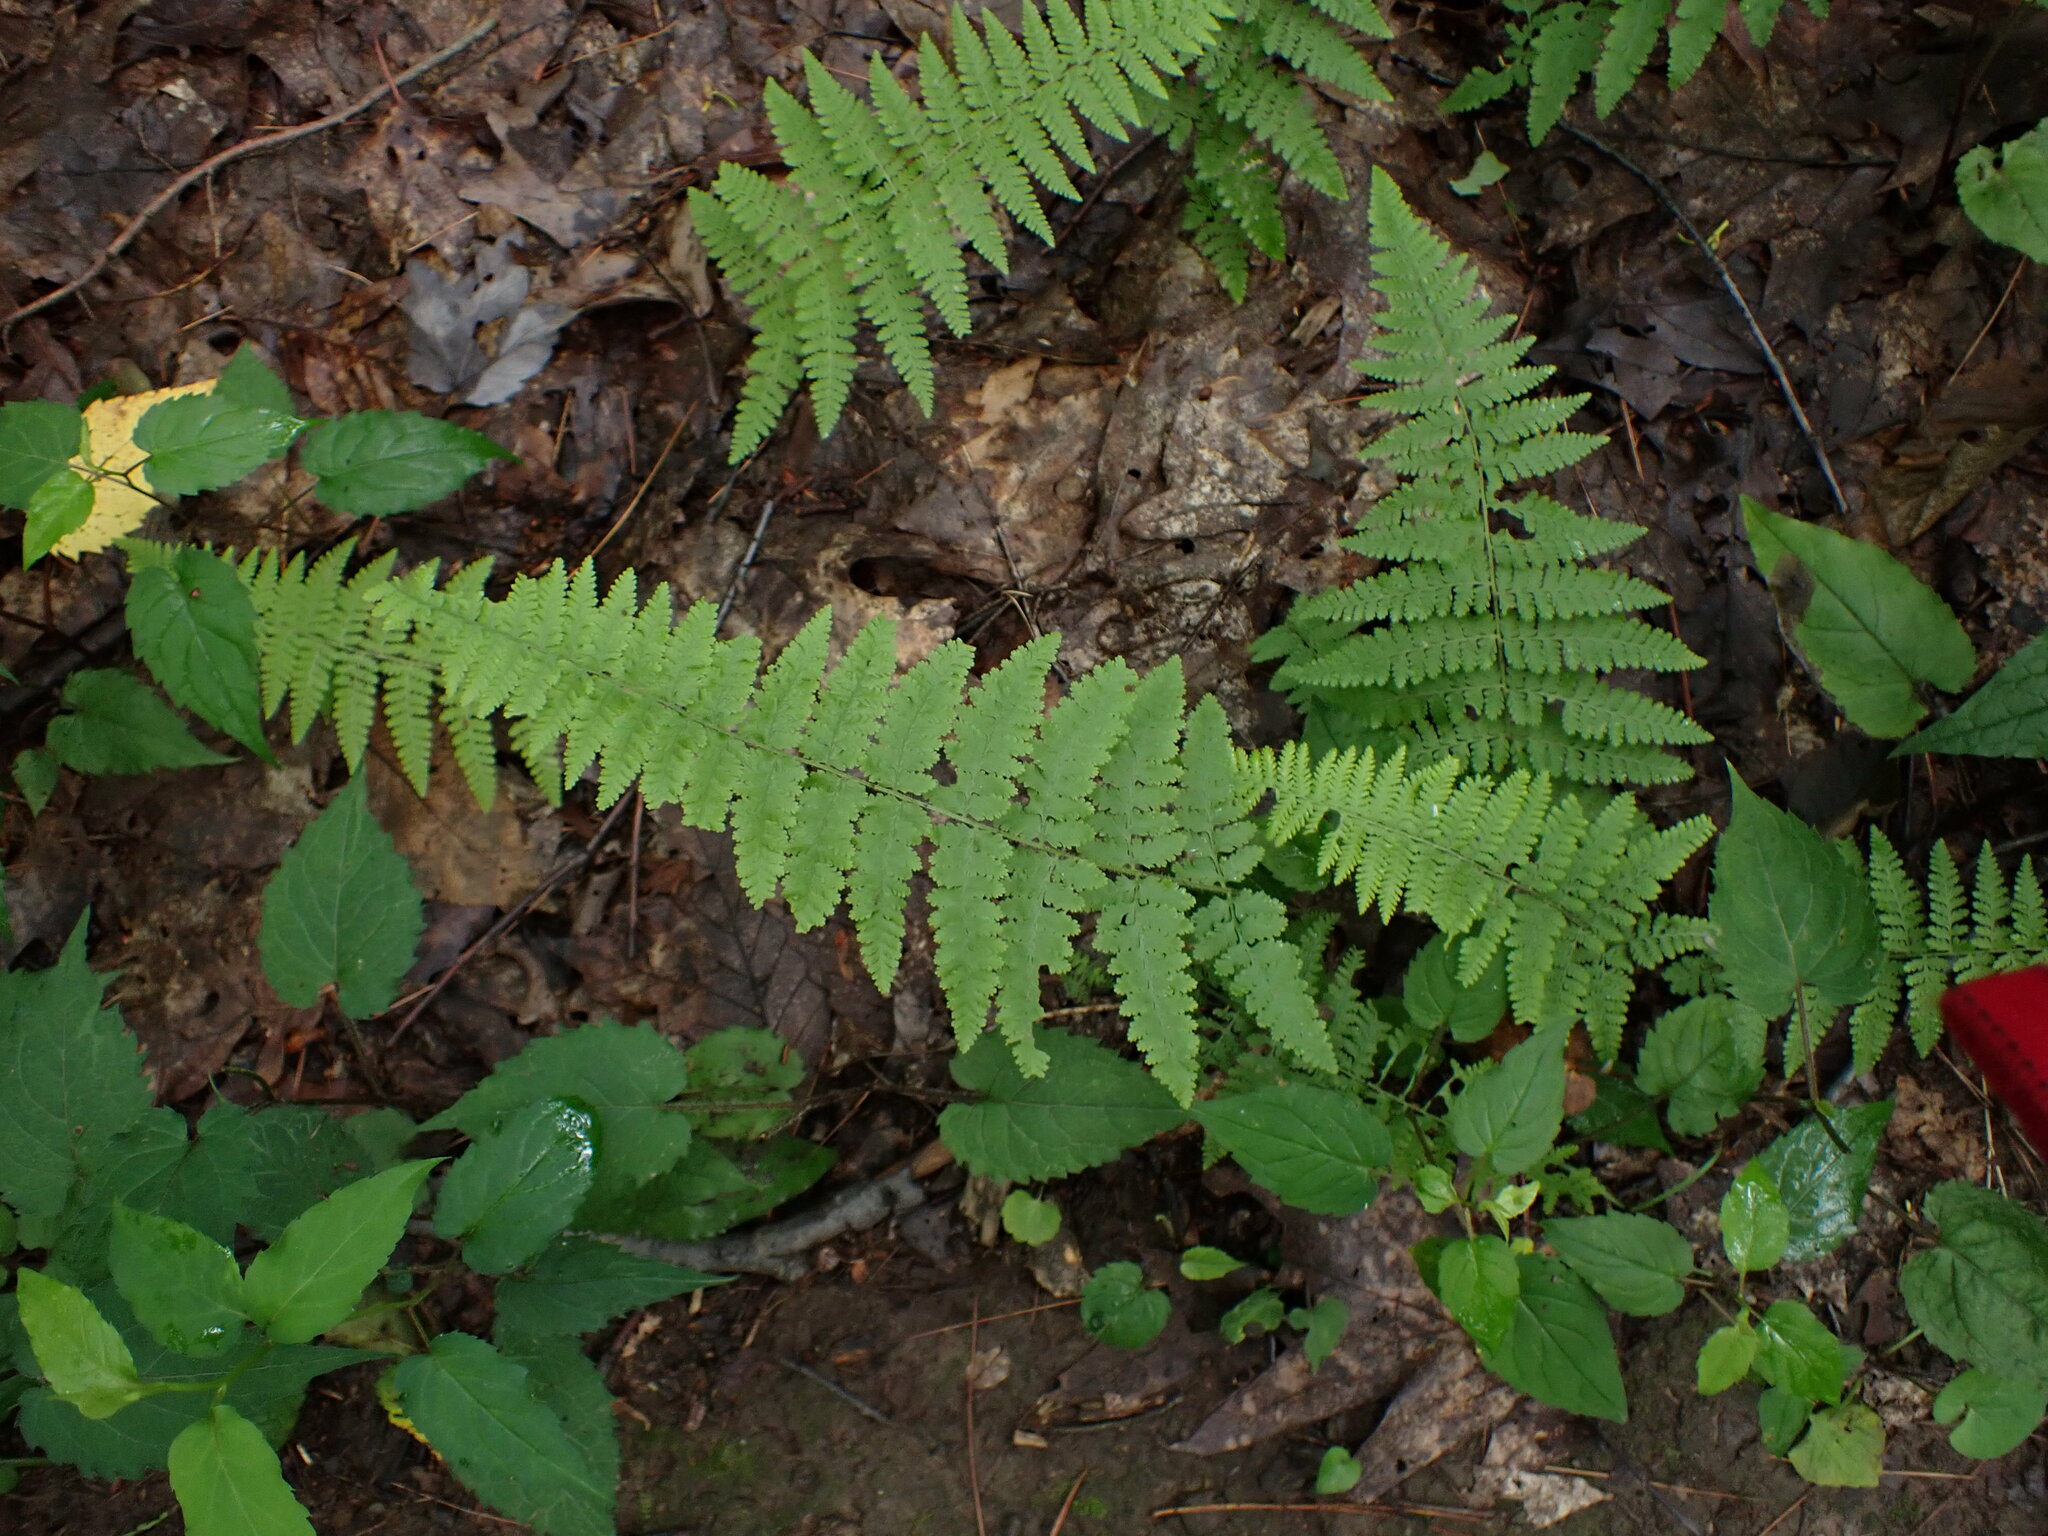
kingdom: Plantae
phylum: Tracheophyta
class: Polypodiopsida
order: Polypodiales
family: Dennstaedtiaceae
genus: Sitobolium
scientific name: Sitobolium punctilobum
